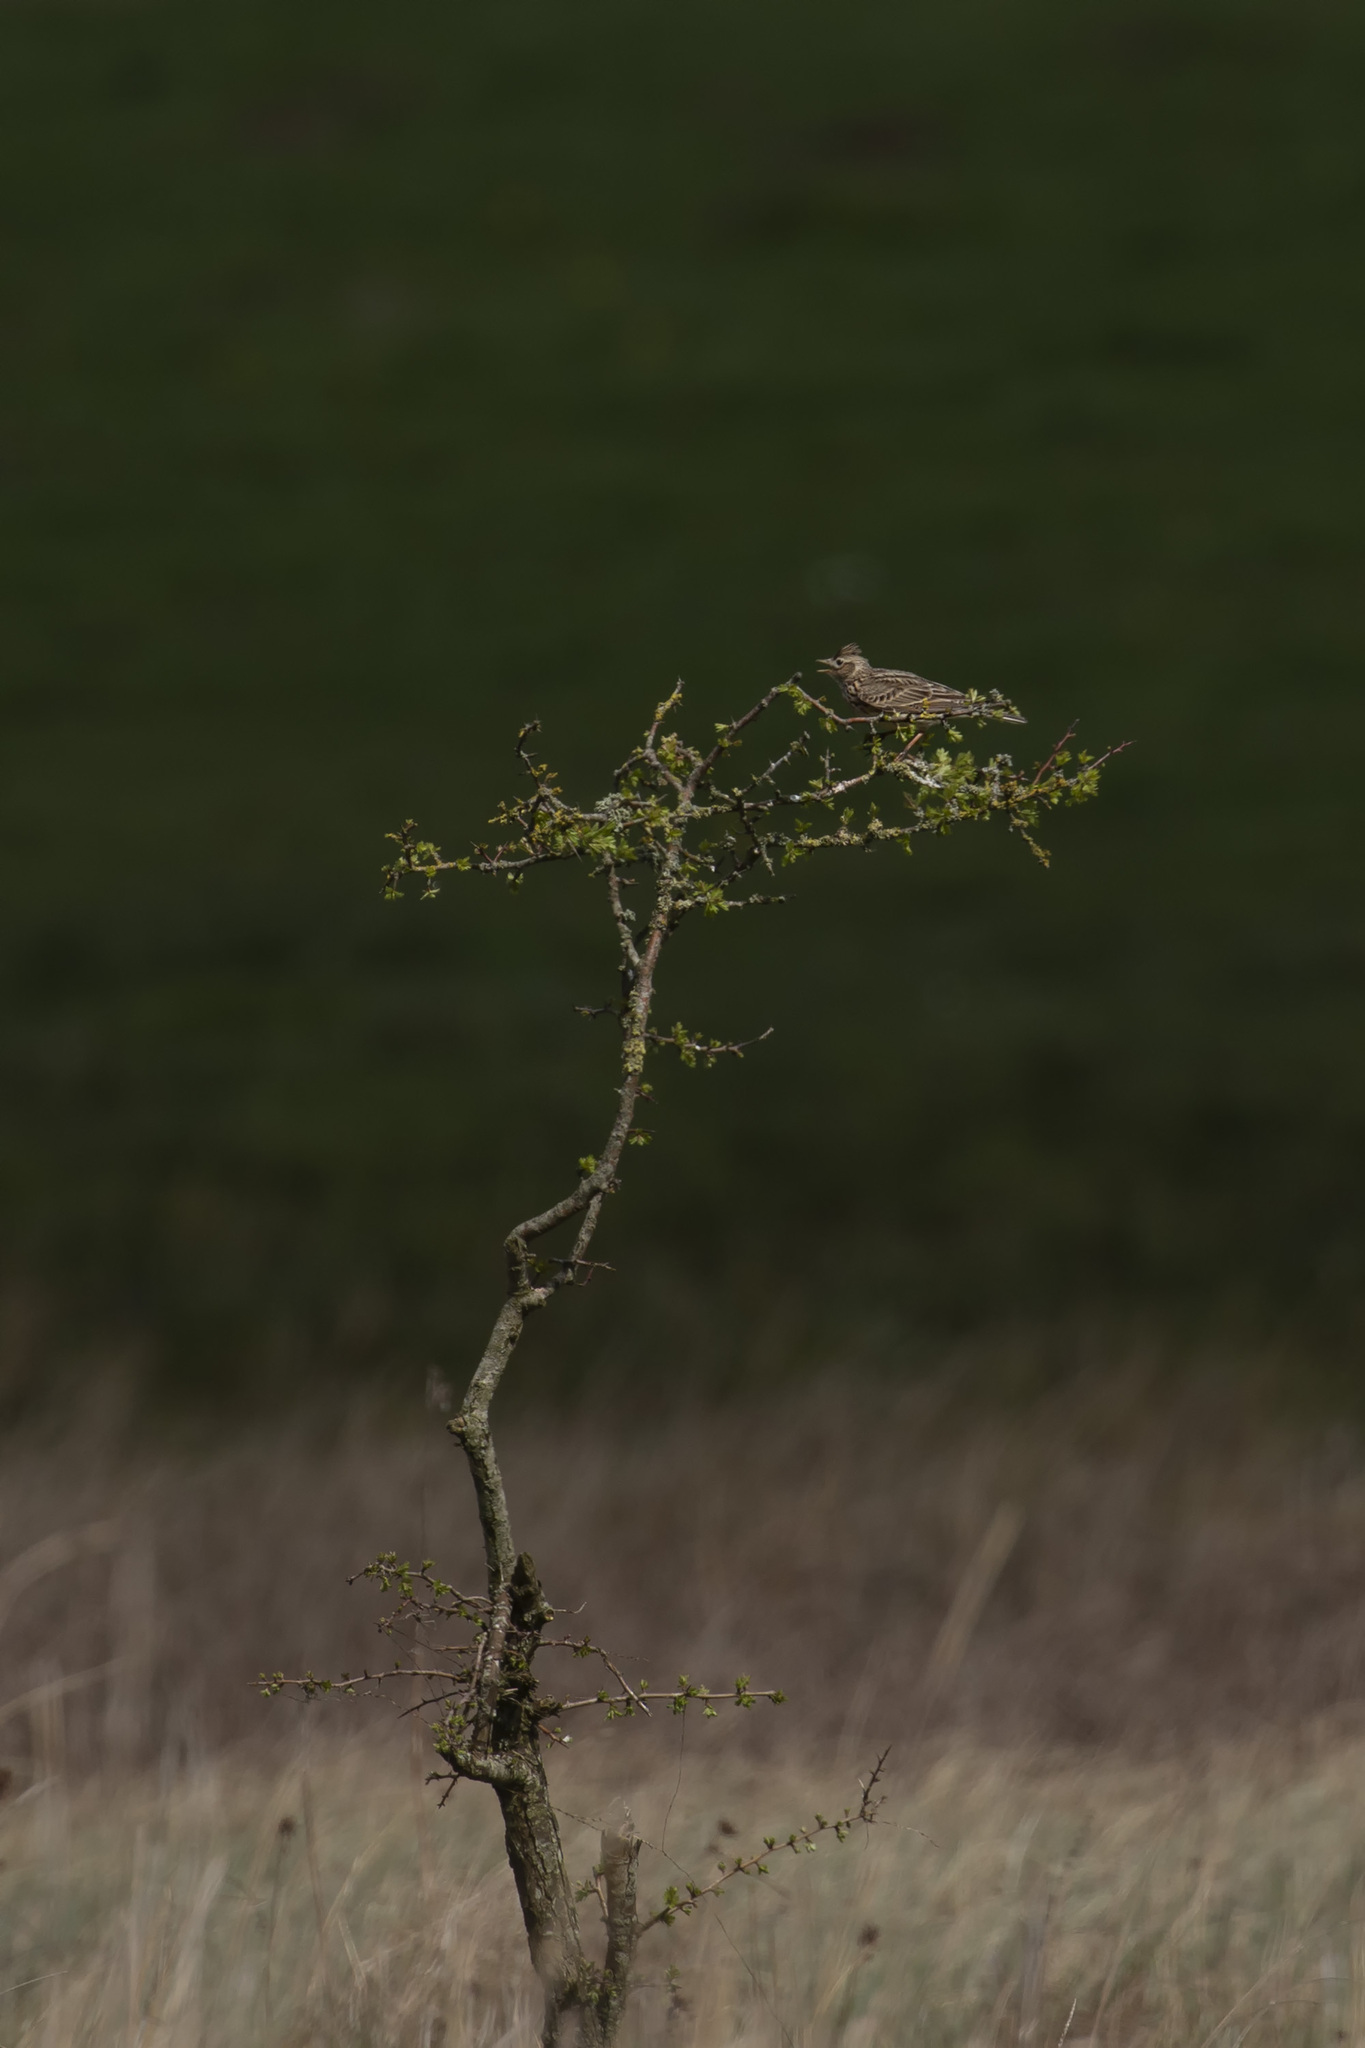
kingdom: Animalia
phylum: Chordata
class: Aves
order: Passeriformes
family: Alaudidae
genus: Alauda
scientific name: Alauda arvensis
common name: Eurasian skylark
